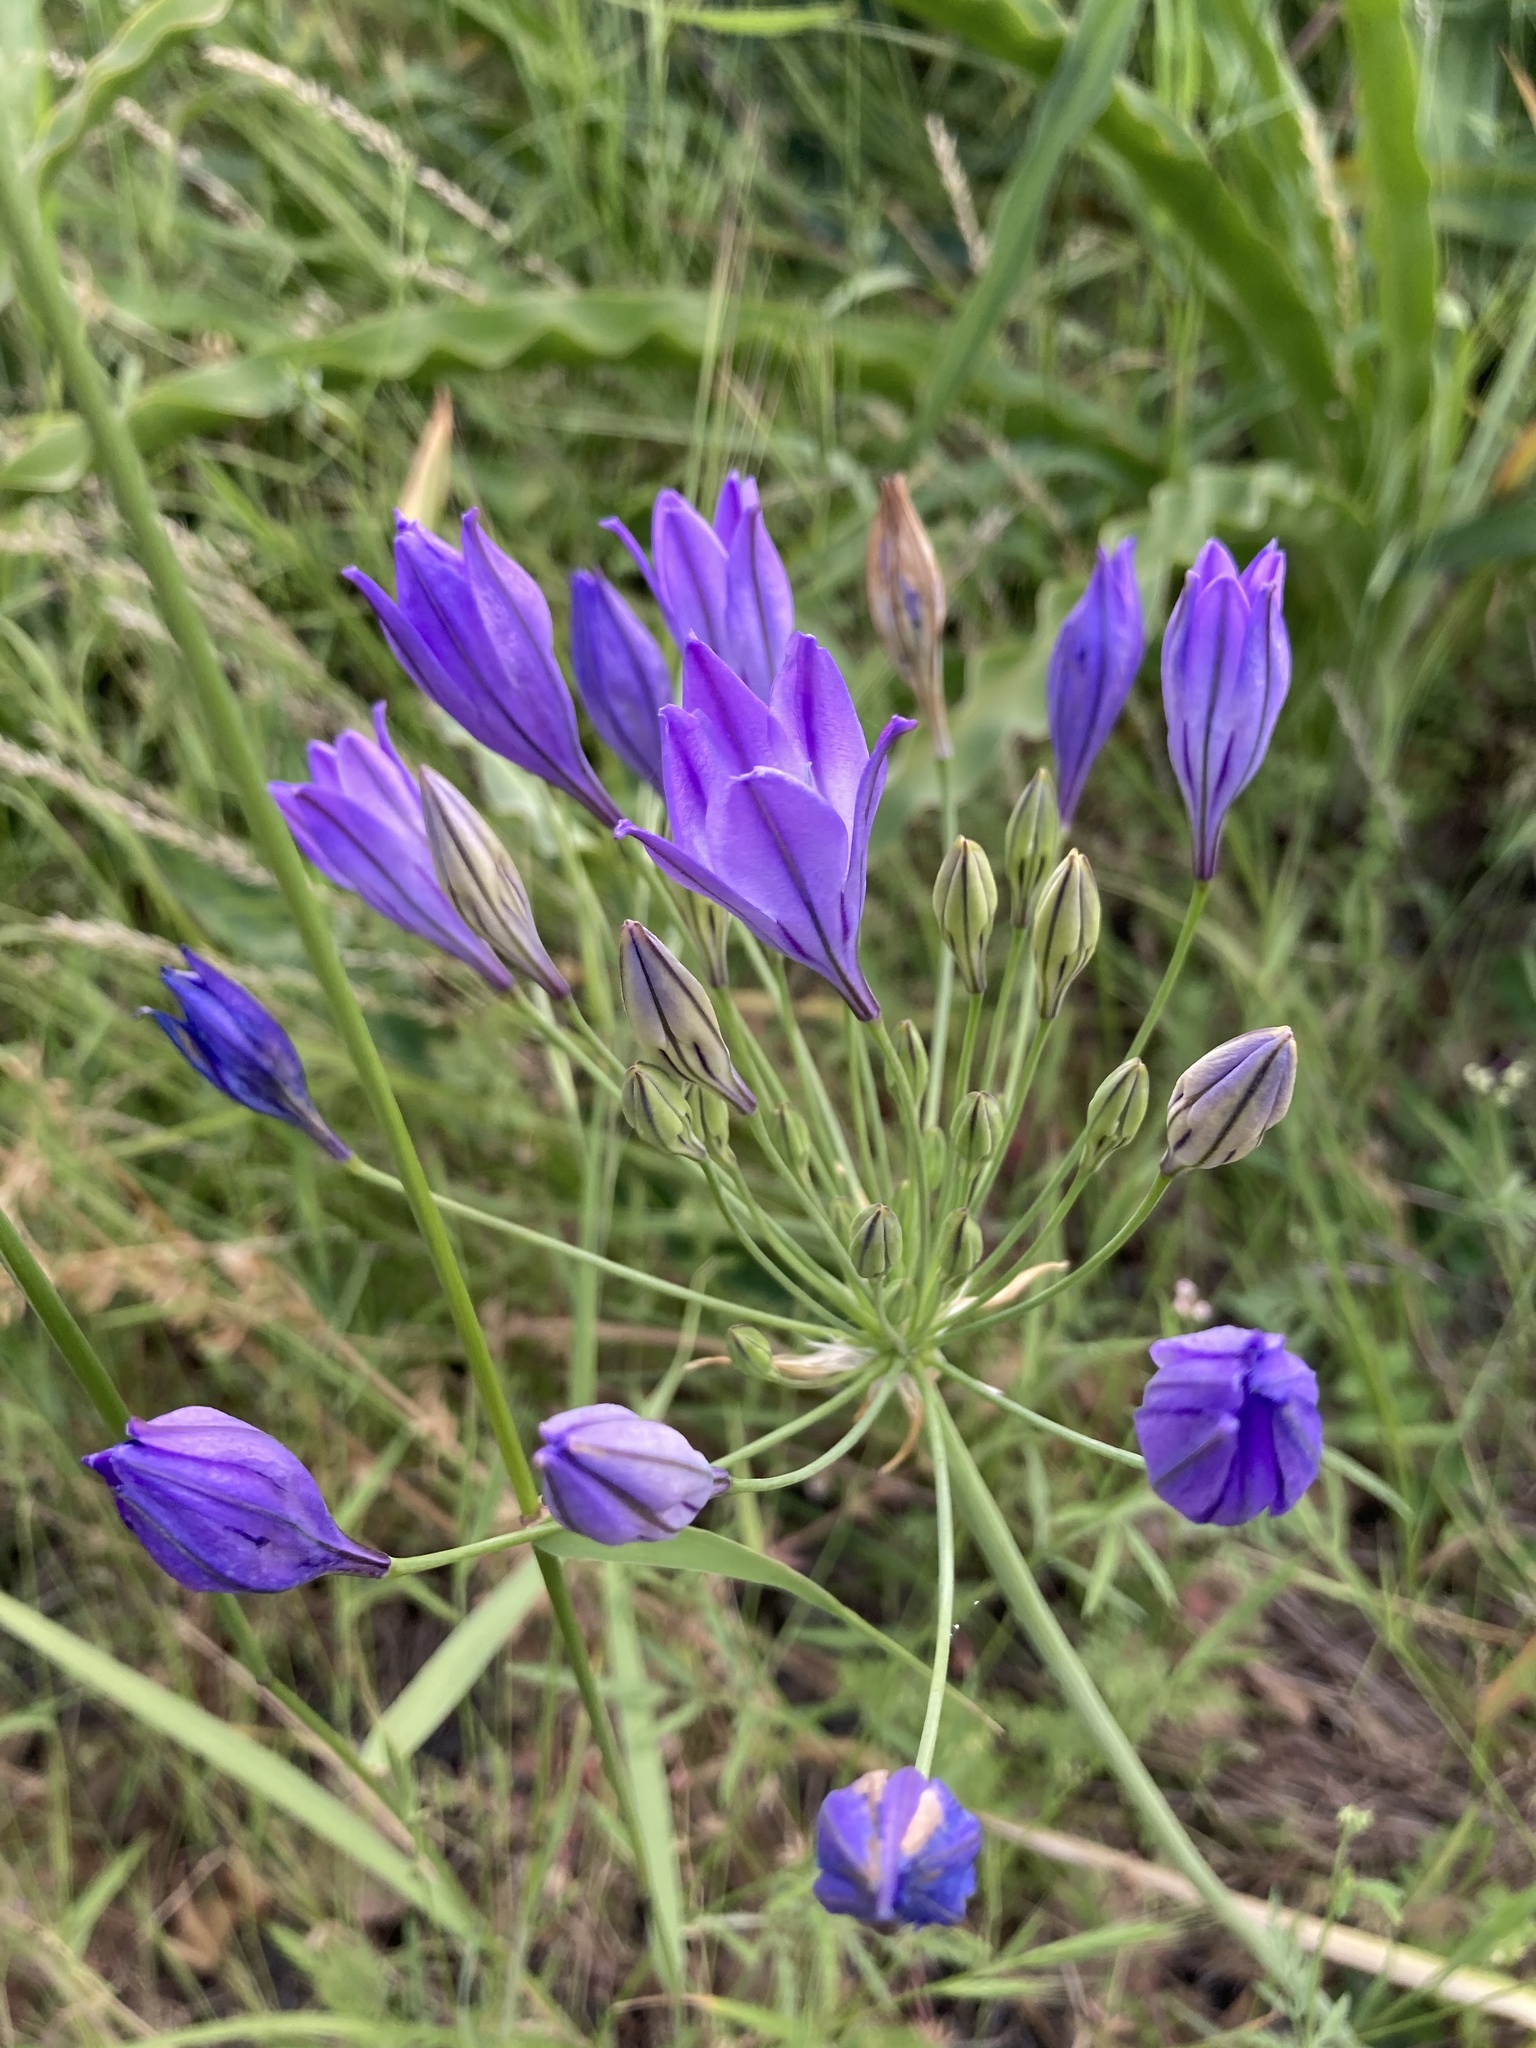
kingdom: Plantae
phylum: Tracheophyta
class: Liliopsida
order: Asparagales
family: Asparagaceae
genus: Triteleia
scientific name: Triteleia laxa
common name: Triplet-lily
